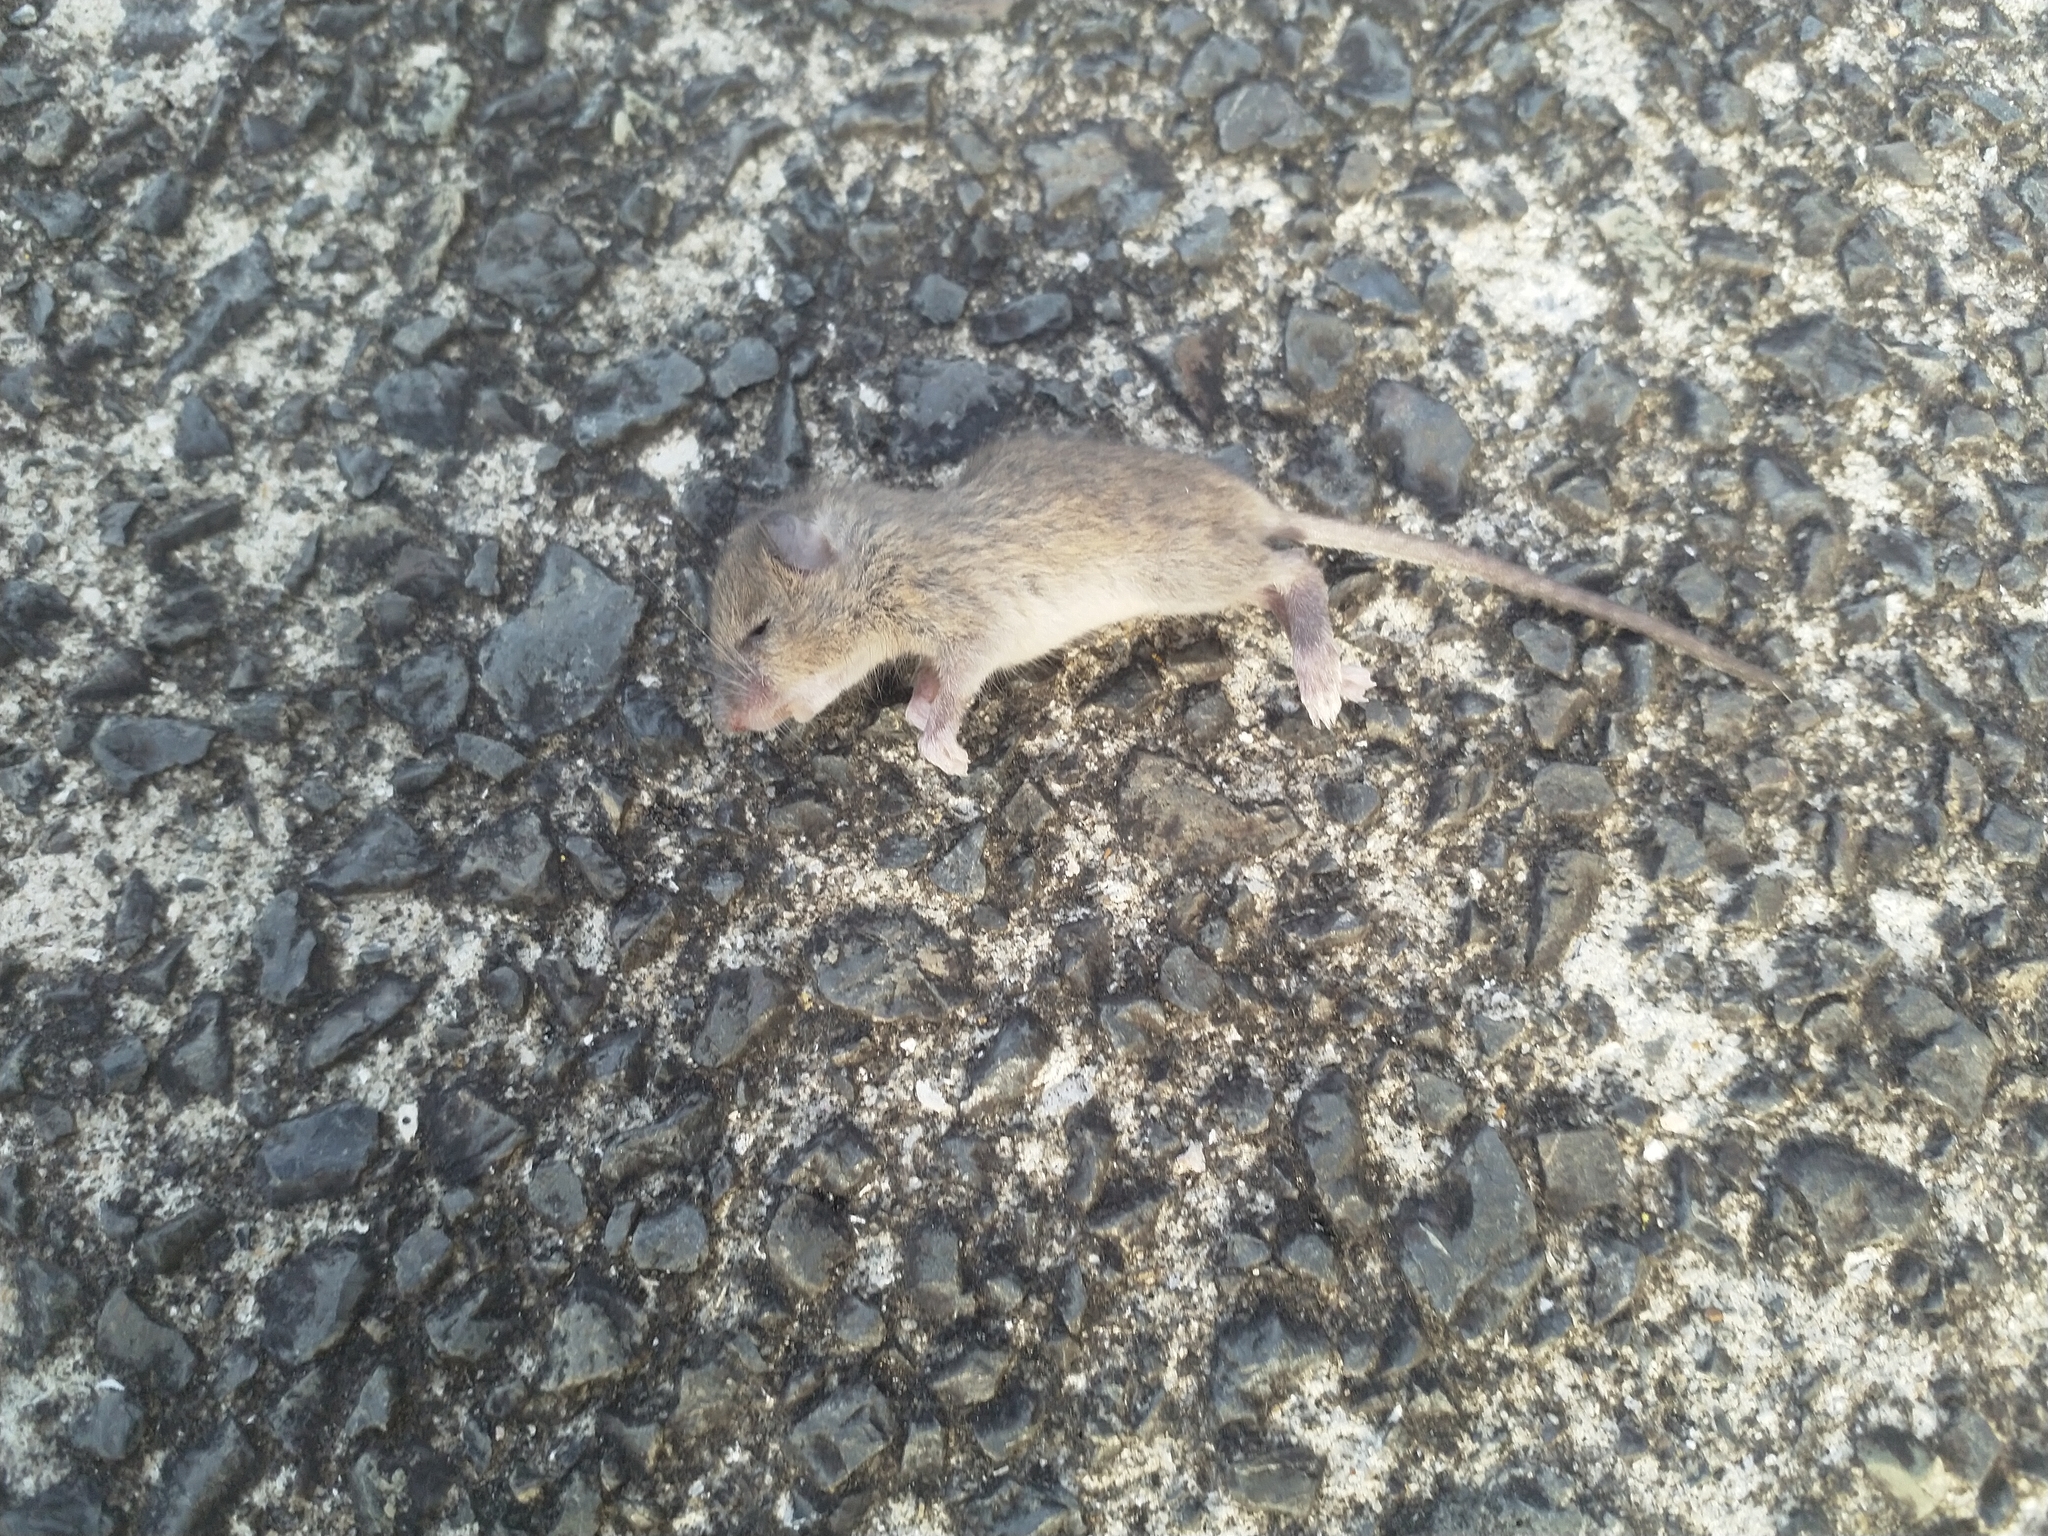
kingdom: Animalia
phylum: Chordata
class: Mammalia
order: Rodentia
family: Muridae
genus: Rattus
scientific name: Rattus rattus
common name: Black rat
